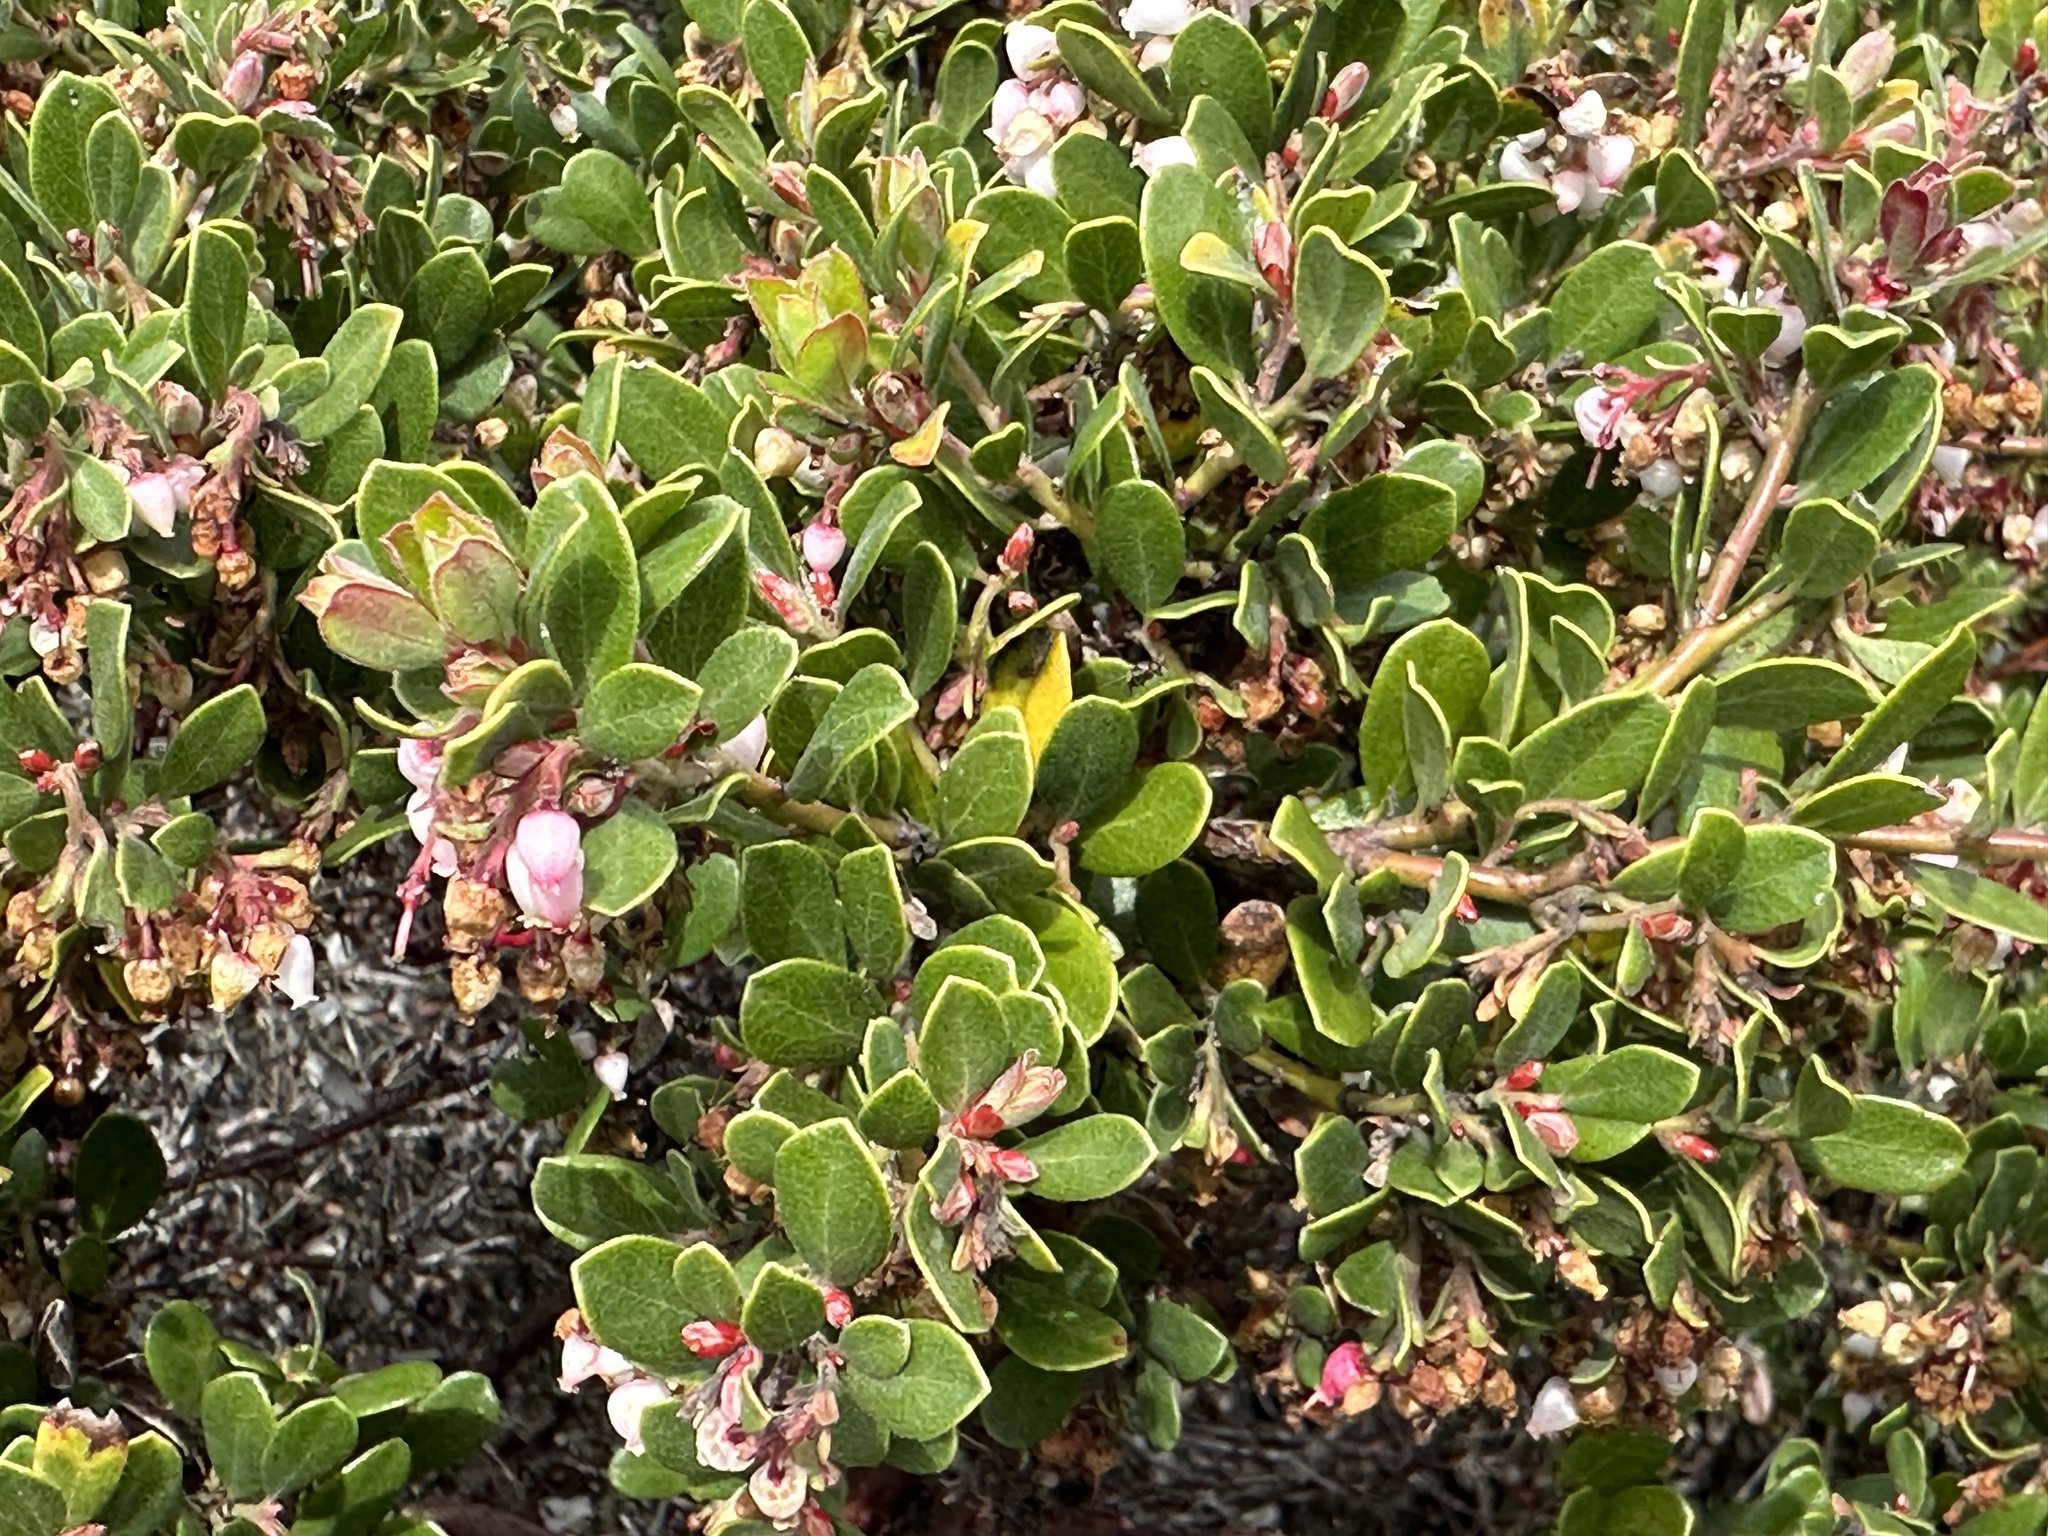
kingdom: Plantae
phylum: Tracheophyta
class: Magnoliopsida
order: Ericales
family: Ericaceae
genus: Arctostaphylos
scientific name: Arctostaphylos pumila
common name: Sandmat manzanita
